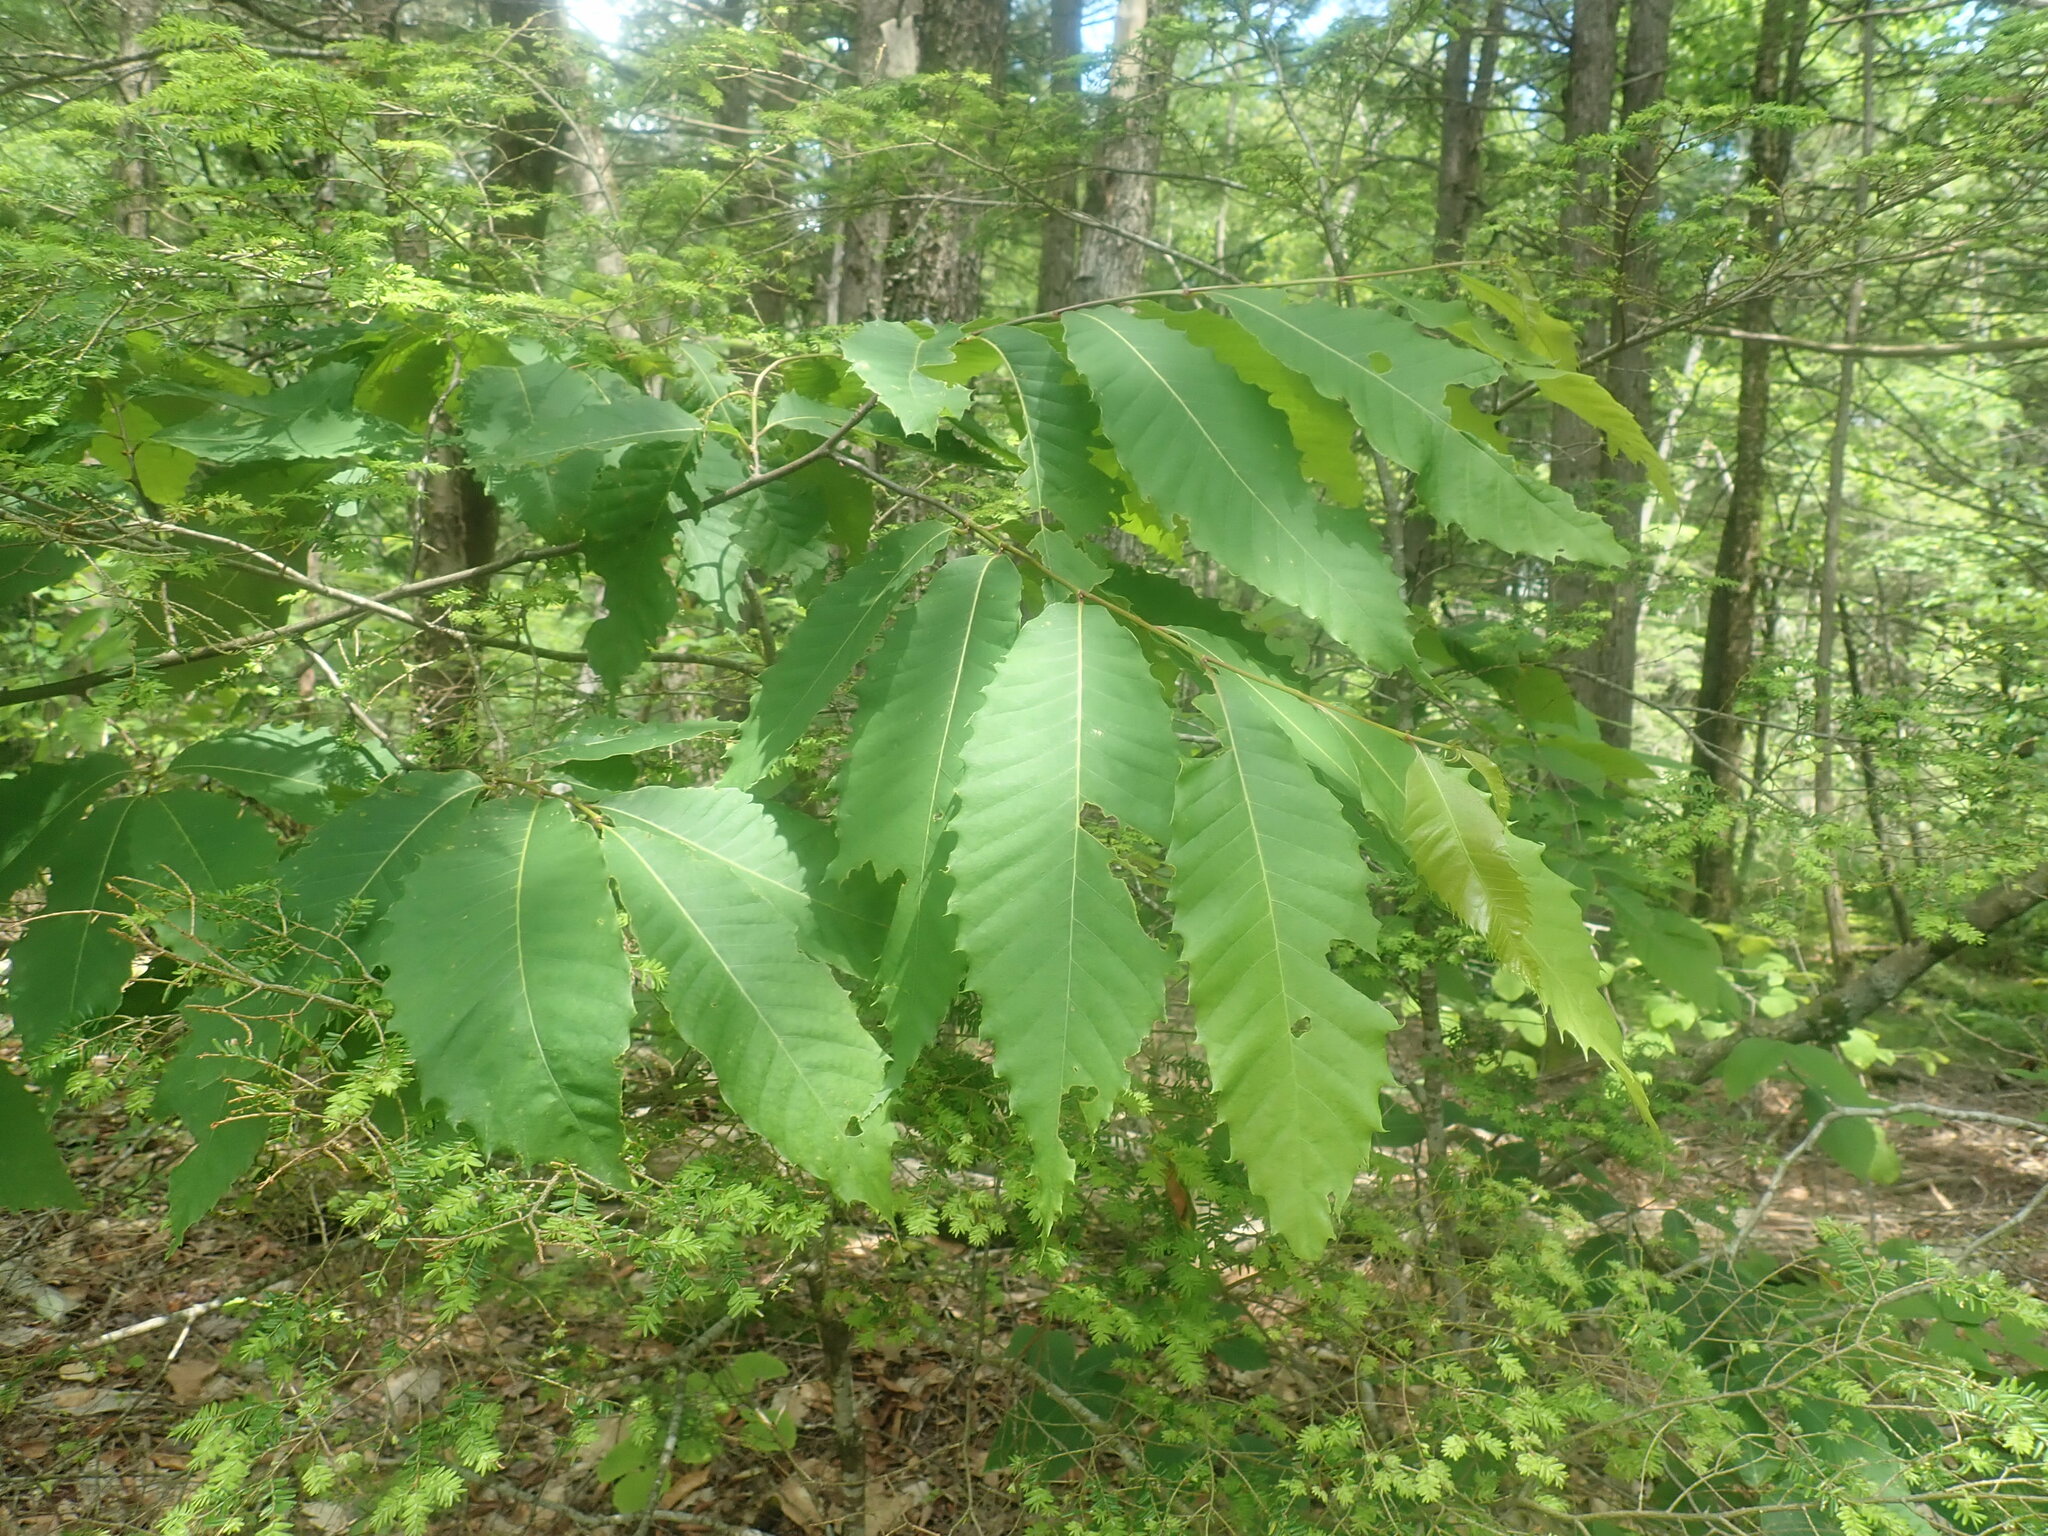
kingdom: Plantae
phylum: Tracheophyta
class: Magnoliopsida
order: Fagales
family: Fagaceae
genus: Castanea
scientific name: Castanea dentata
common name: American chestnut
